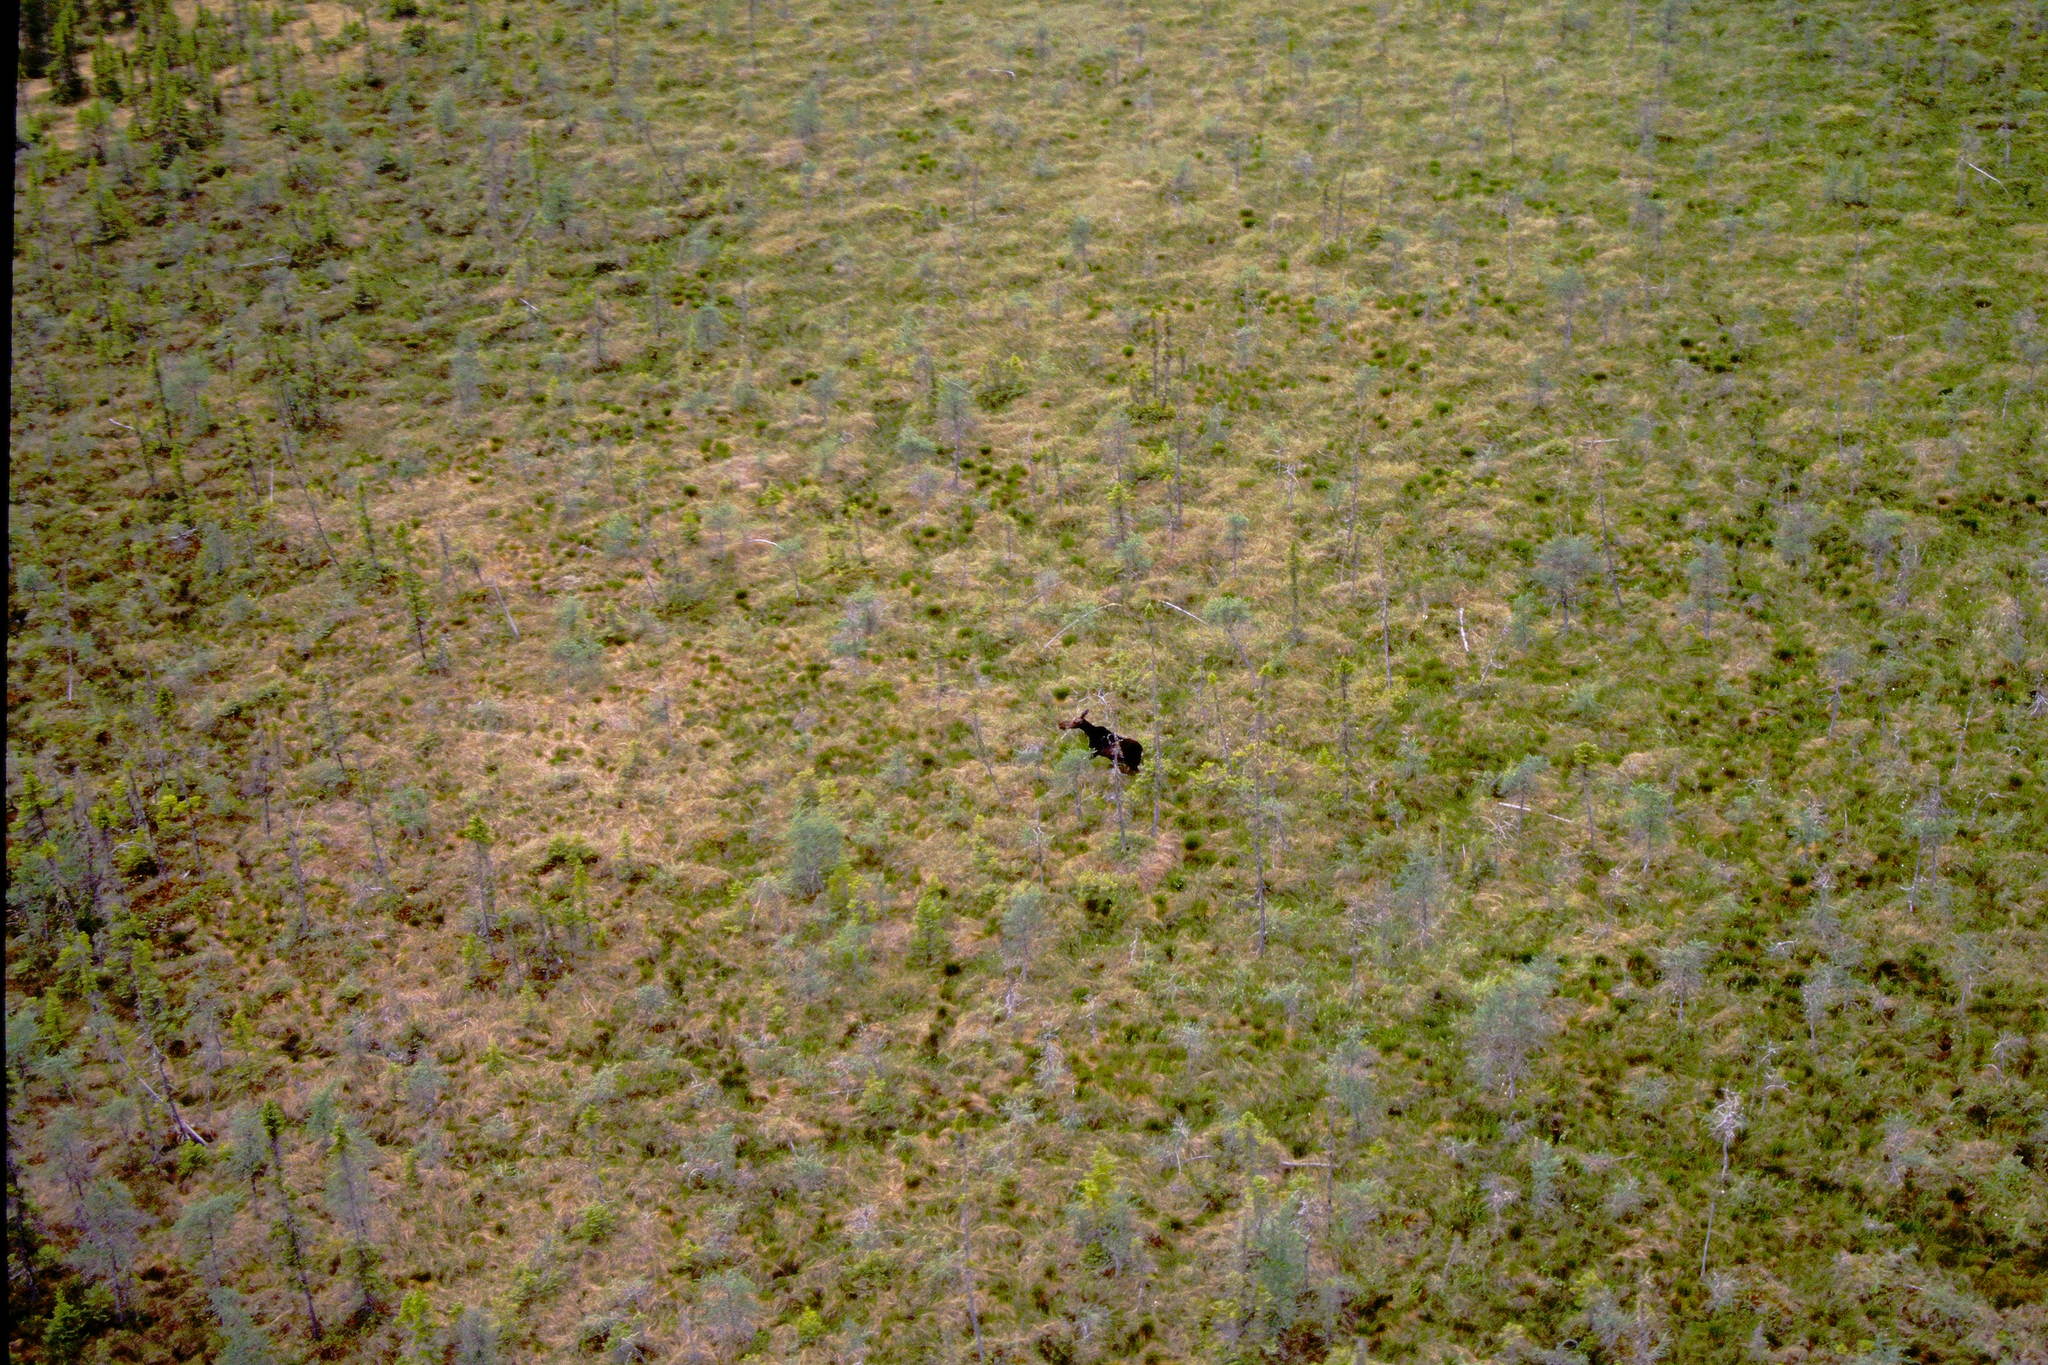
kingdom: Animalia
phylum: Chordata
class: Mammalia
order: Artiodactyla
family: Cervidae
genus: Alces
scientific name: Alces americanus
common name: Moose
